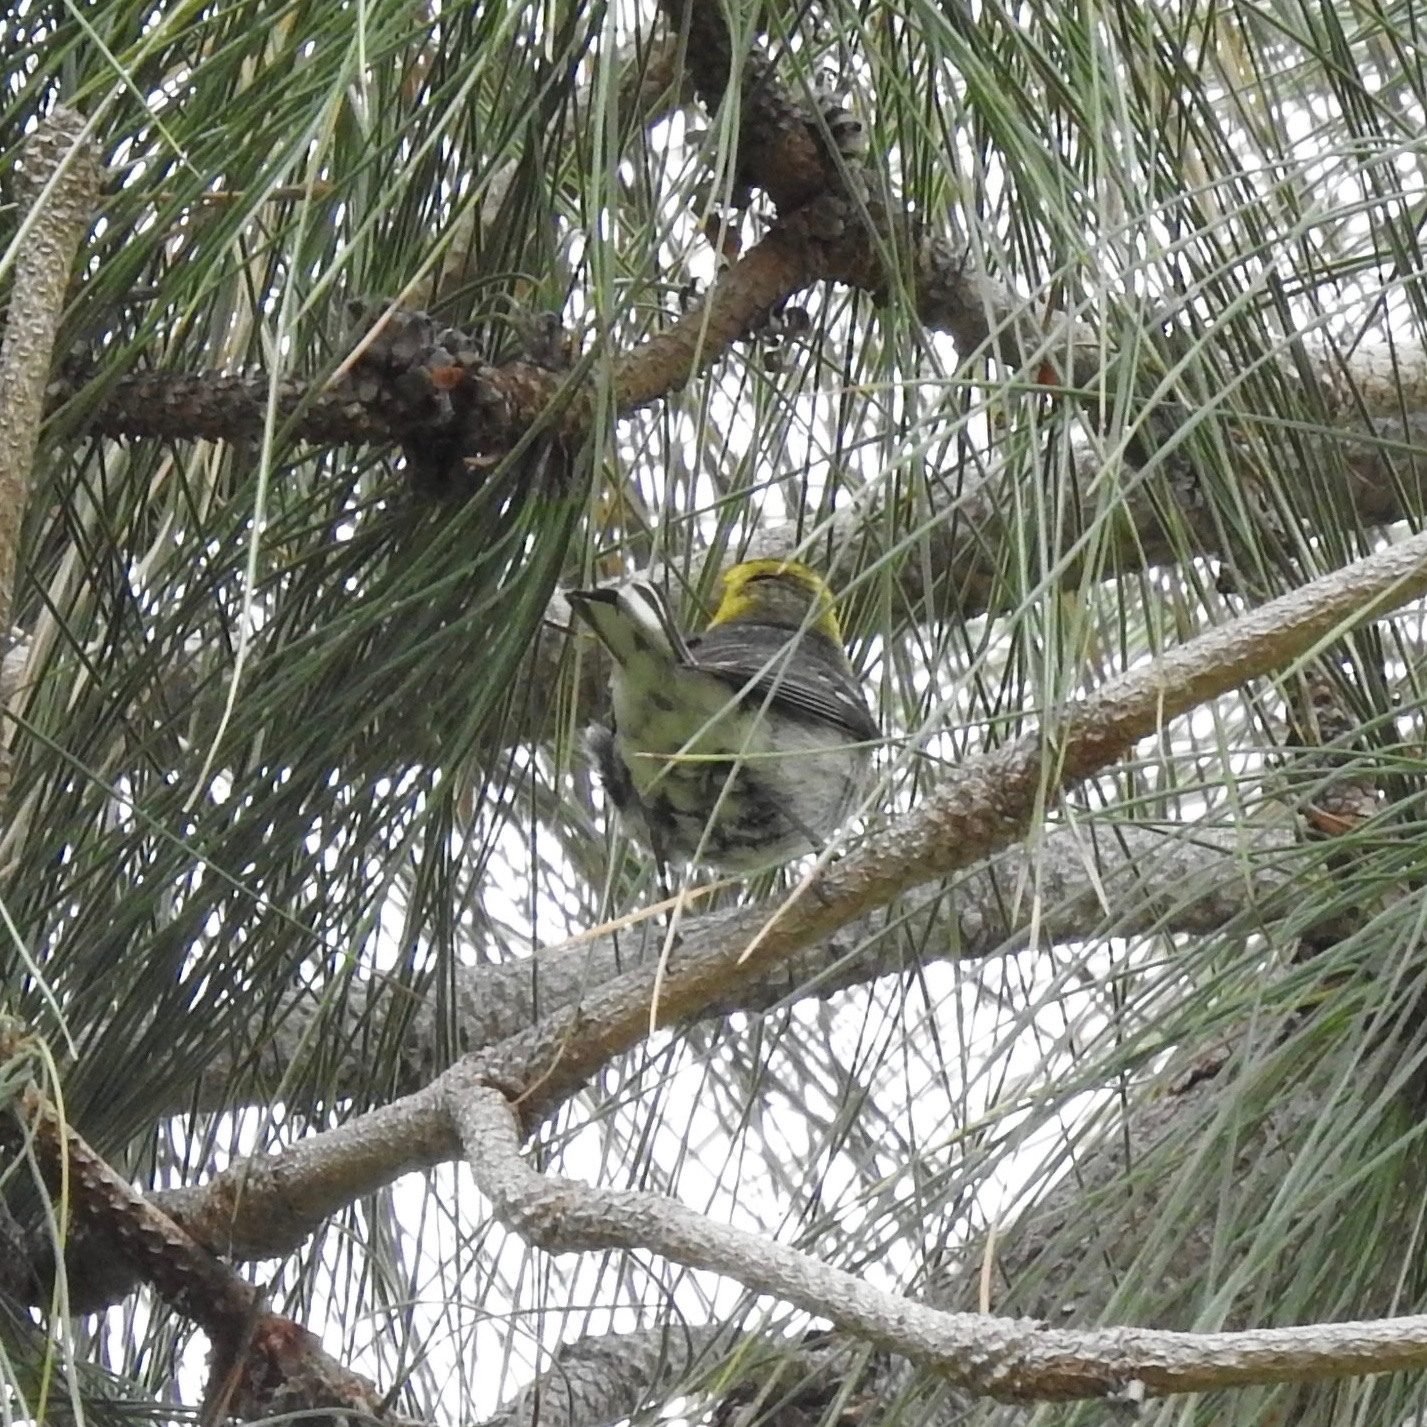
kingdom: Animalia
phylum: Chordata
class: Aves
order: Passeriformes
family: Parulidae
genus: Setophaga
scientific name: Setophaga occidentalis
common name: Hermit warbler
